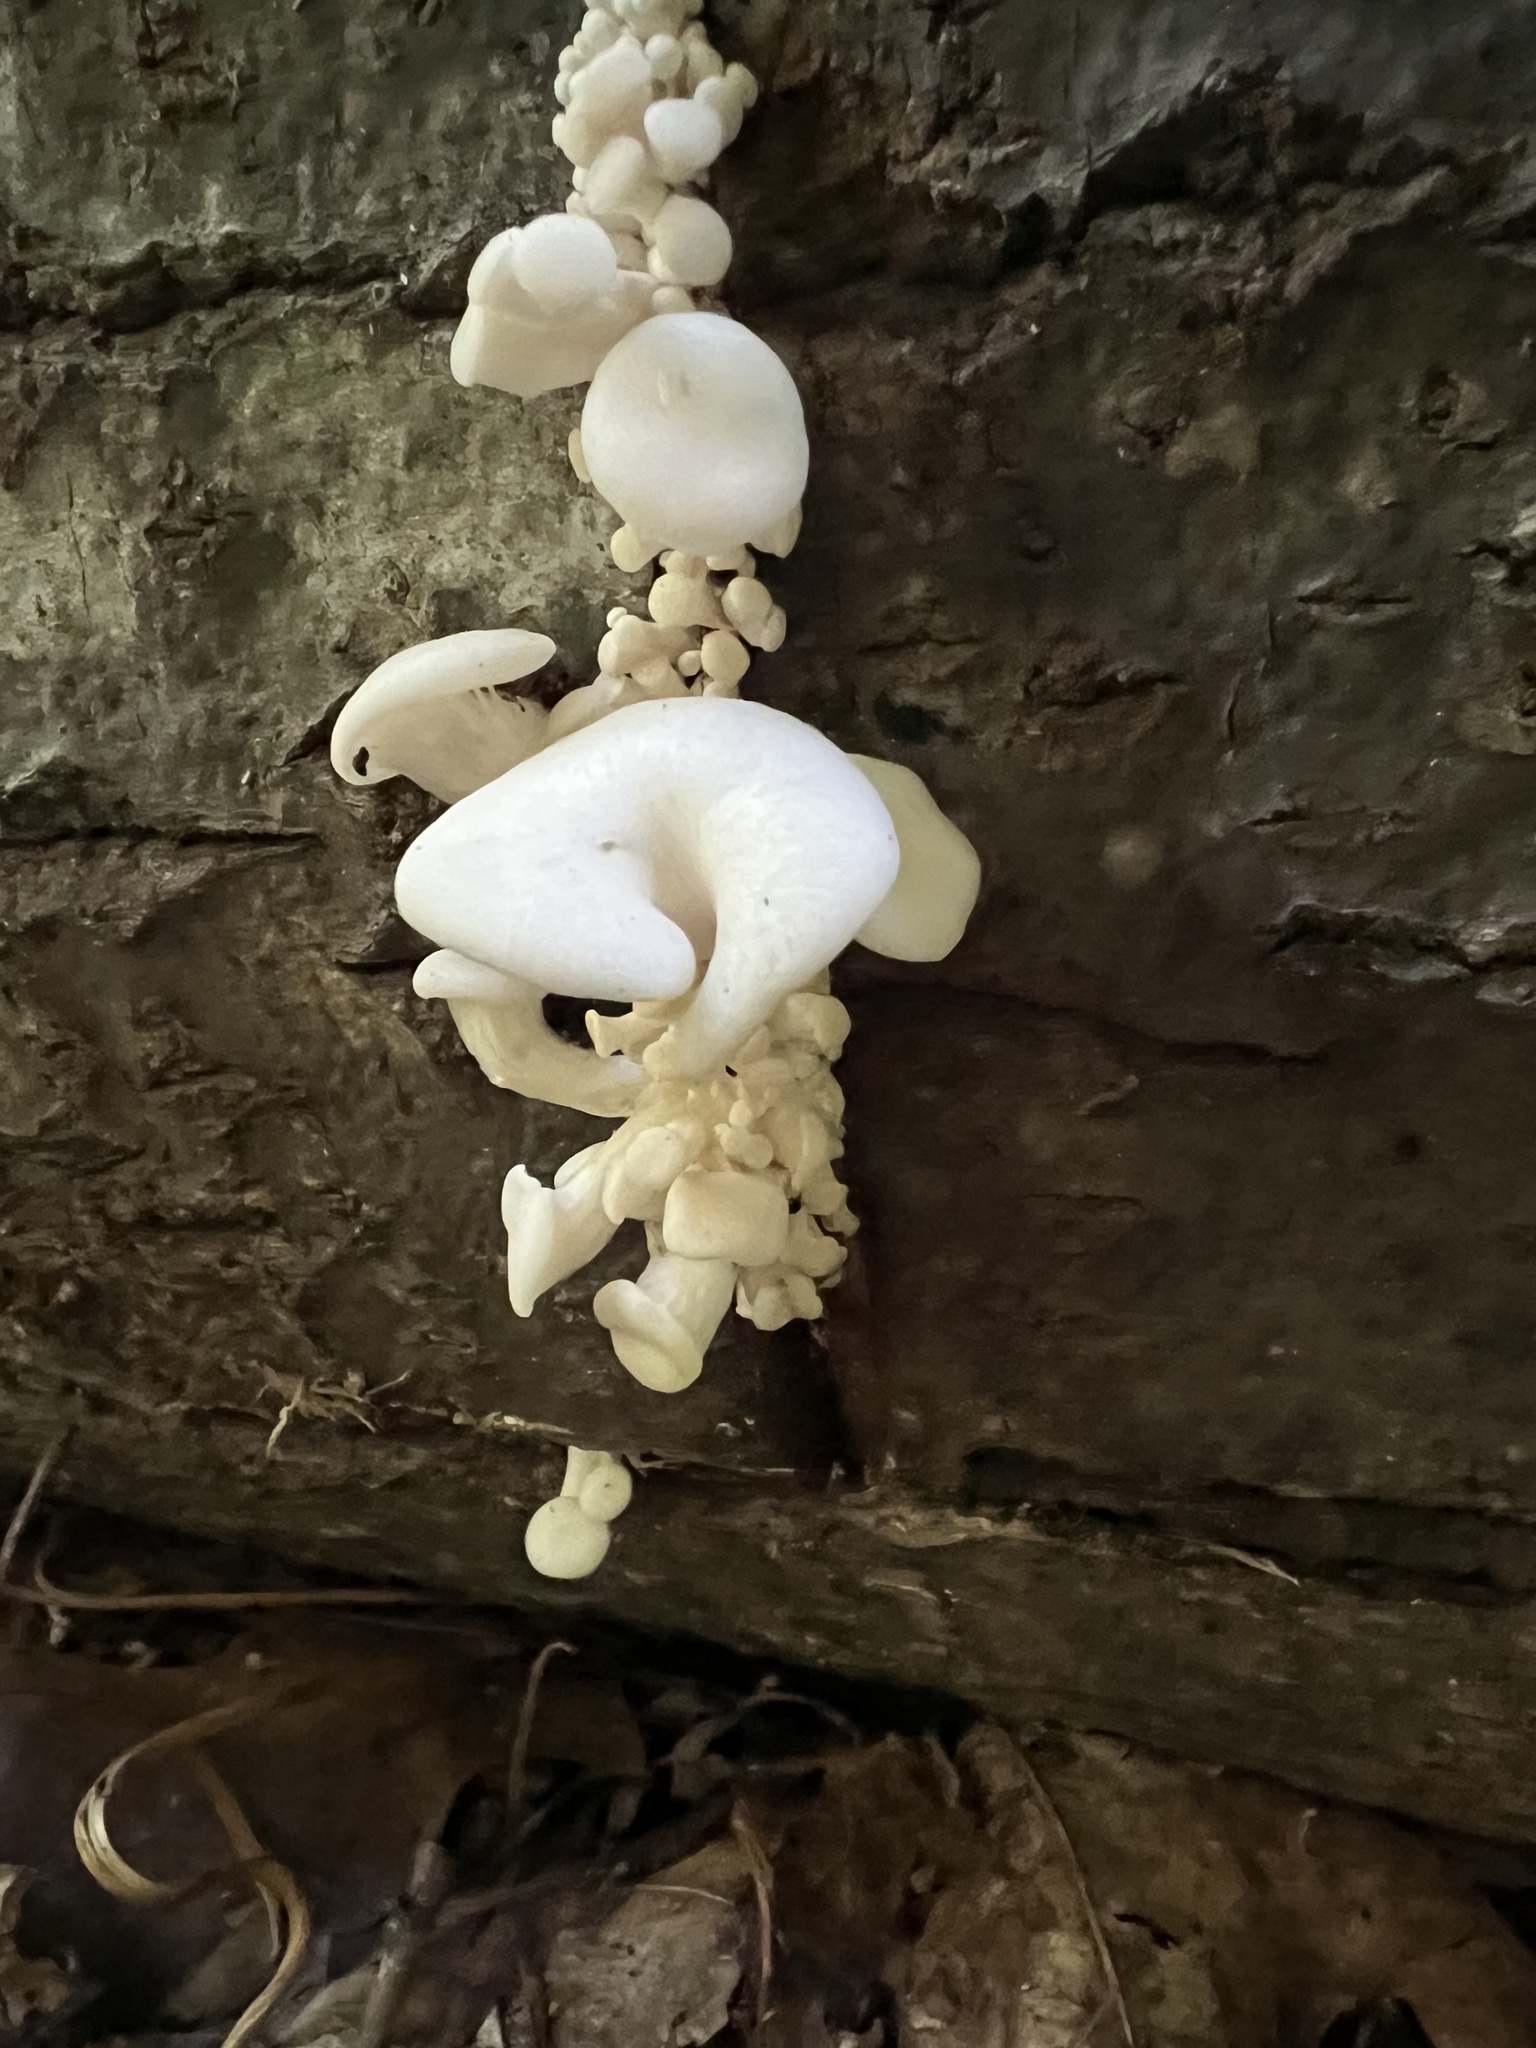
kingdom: Fungi
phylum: Basidiomycota
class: Agaricomycetes
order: Agaricales
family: Pleurotaceae
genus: Pleurotus
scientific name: Pleurotus pulmonarius
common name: Pale oyster
